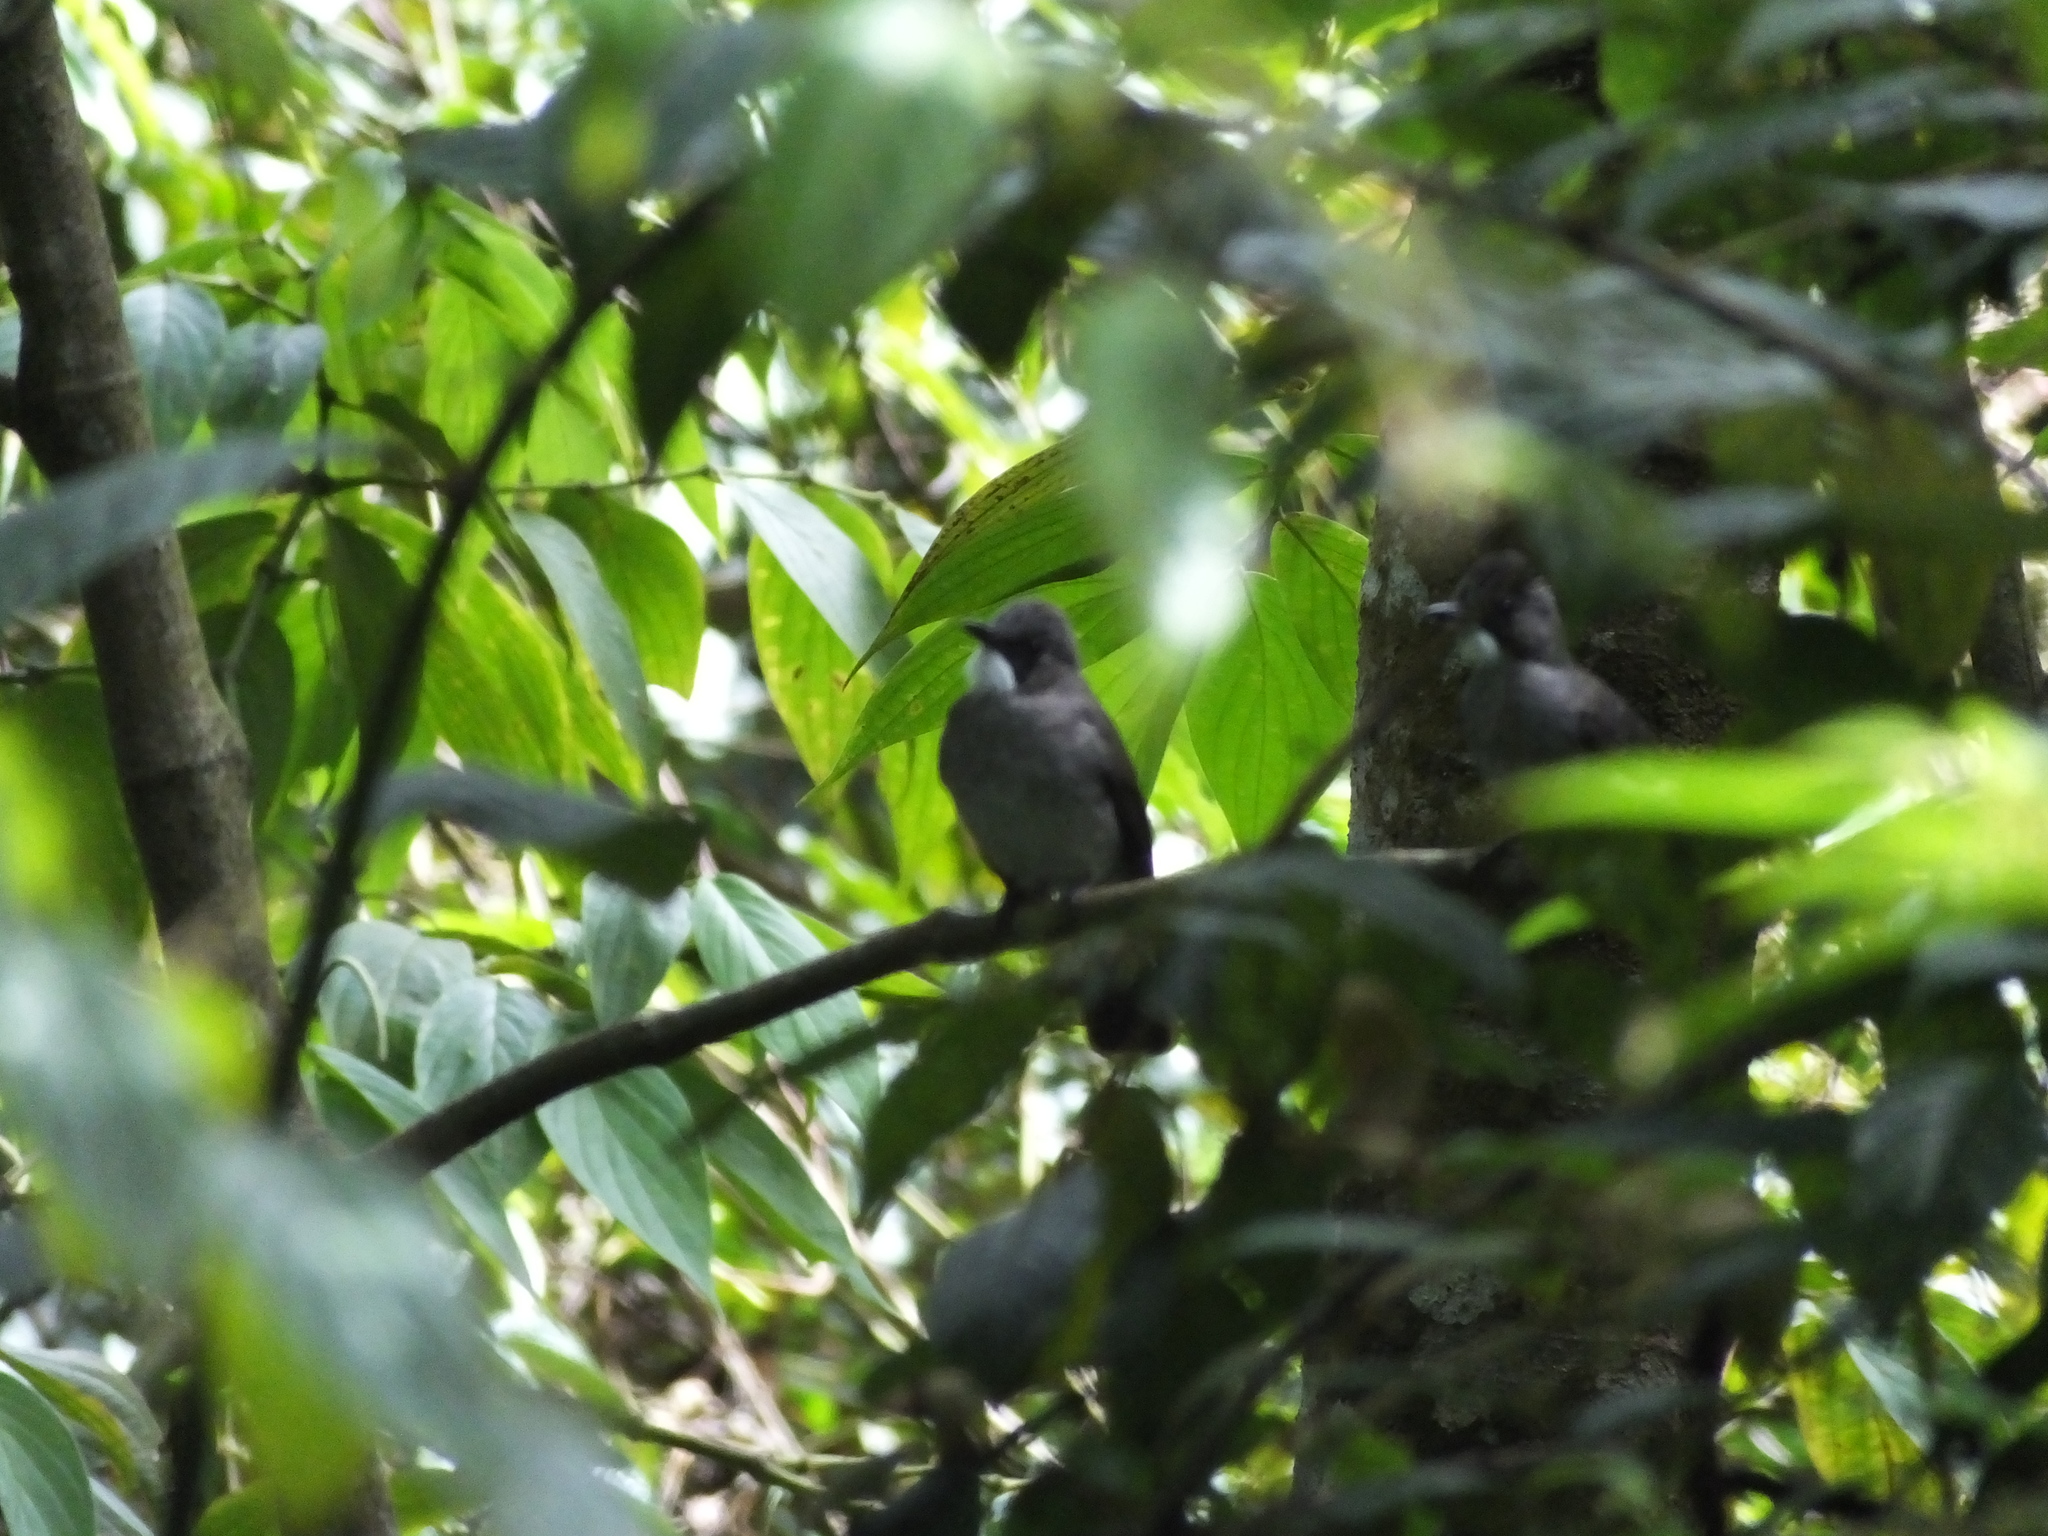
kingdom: Animalia
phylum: Chordata
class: Aves
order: Passeriformes
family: Pycnonotidae
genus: Hemixos
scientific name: Hemixos cinereus
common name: Cinereous bulbul
